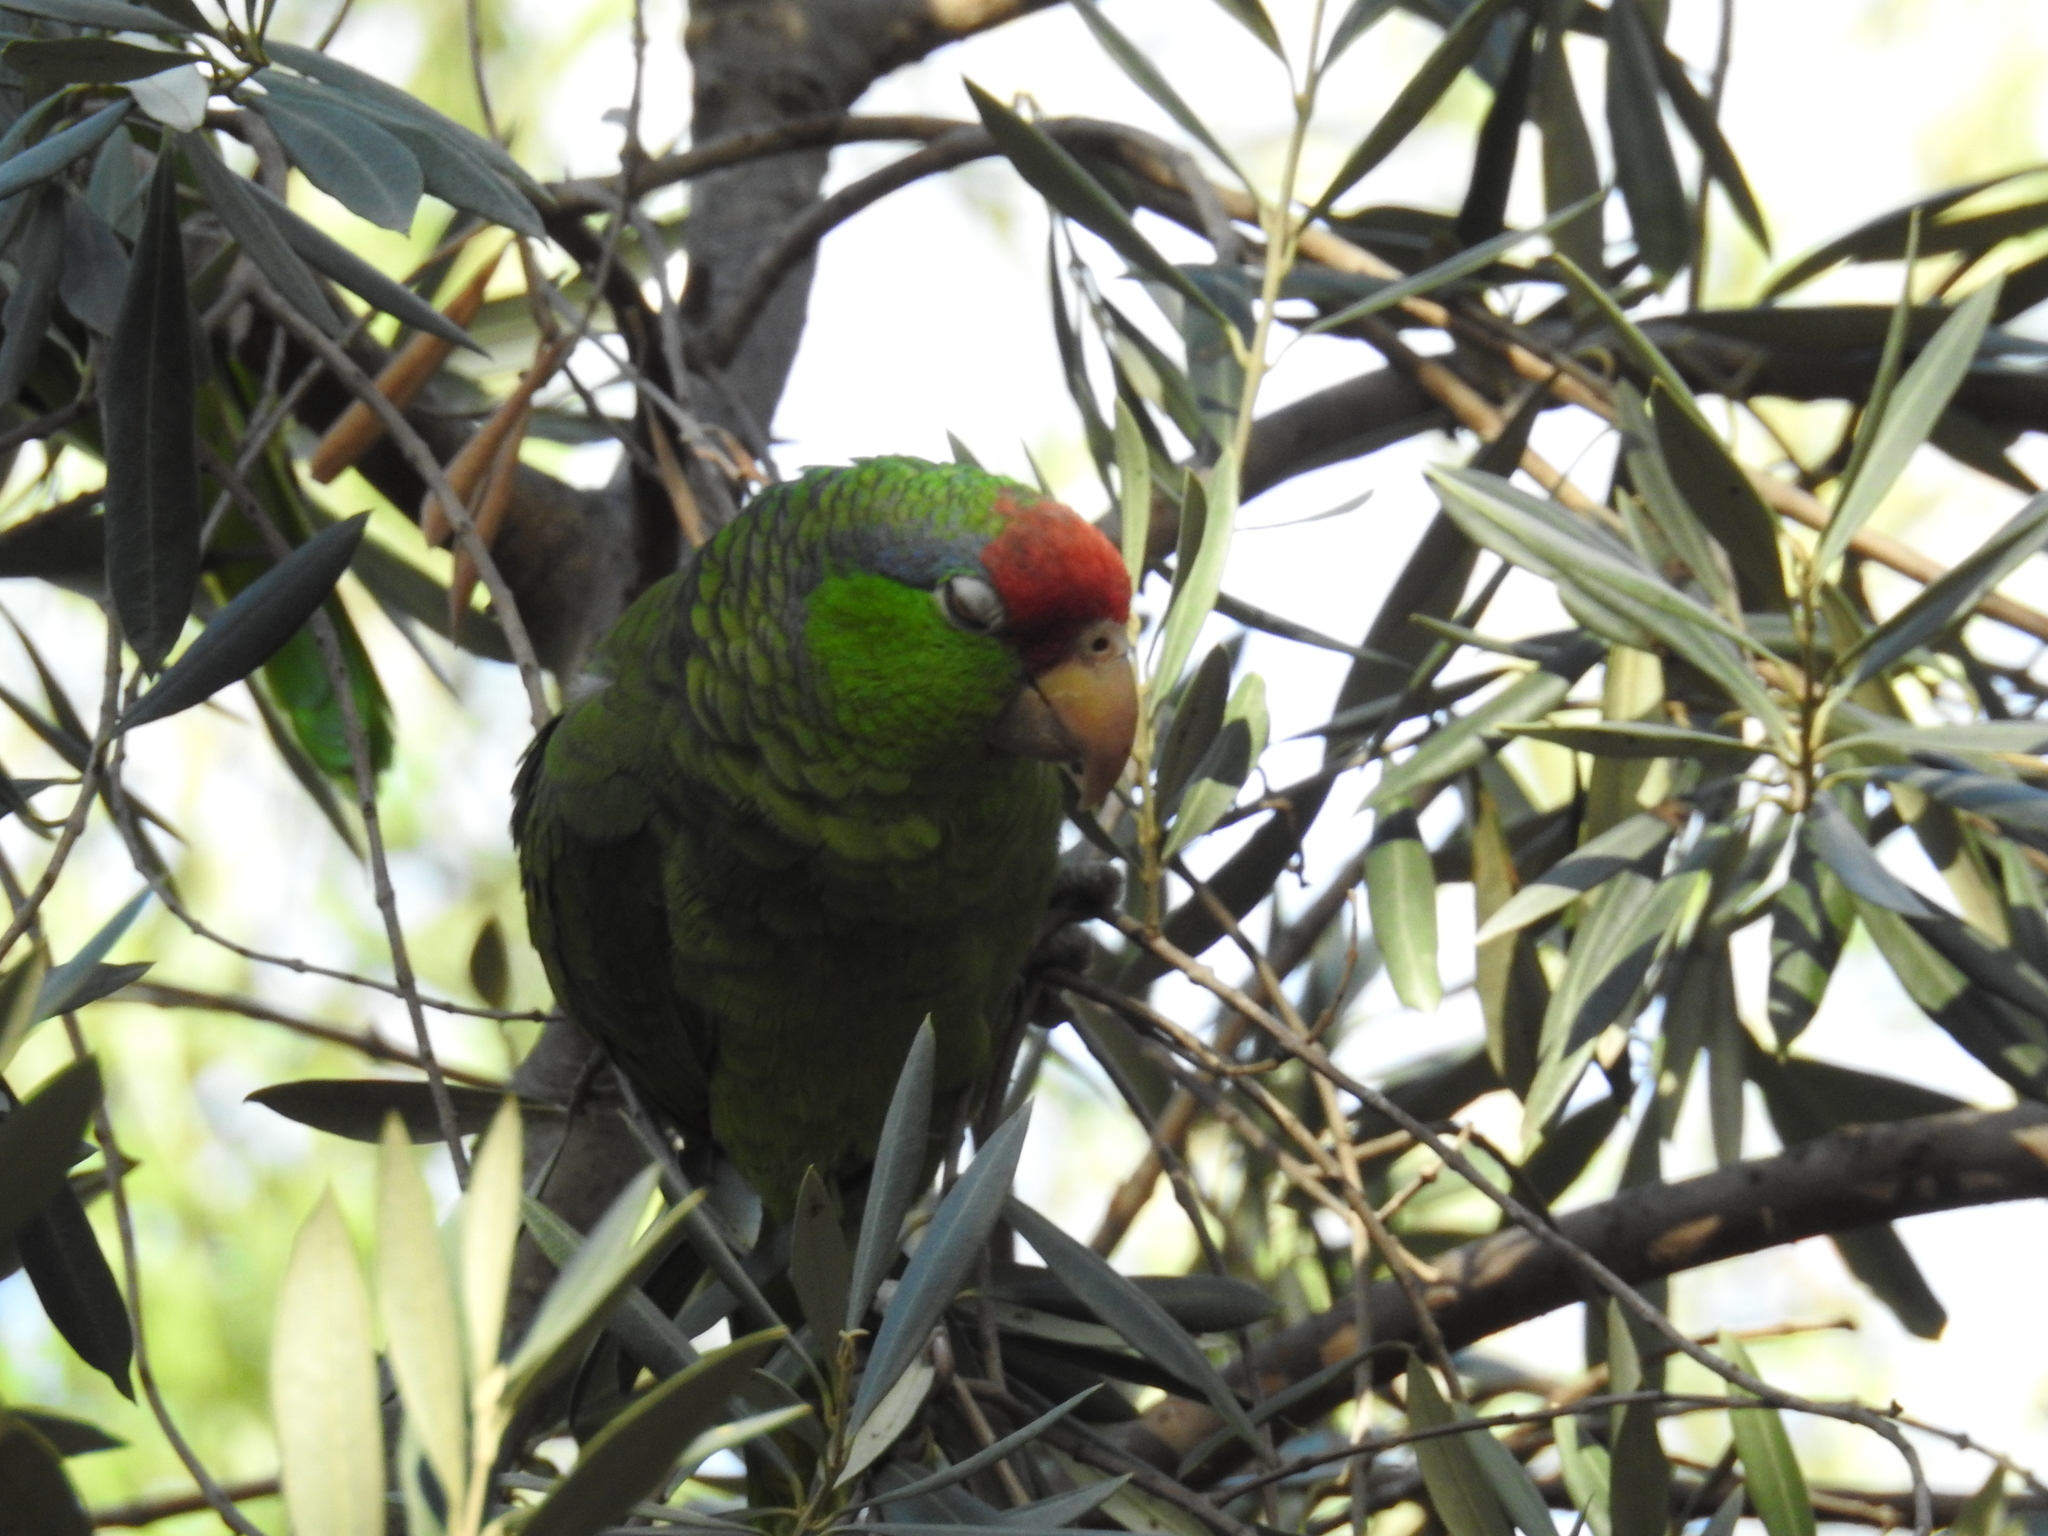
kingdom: Animalia
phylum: Chordata
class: Aves
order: Psittaciformes
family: Psittacidae
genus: Amazona
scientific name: Amazona viridigenalis
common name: Red-crowned amazon
